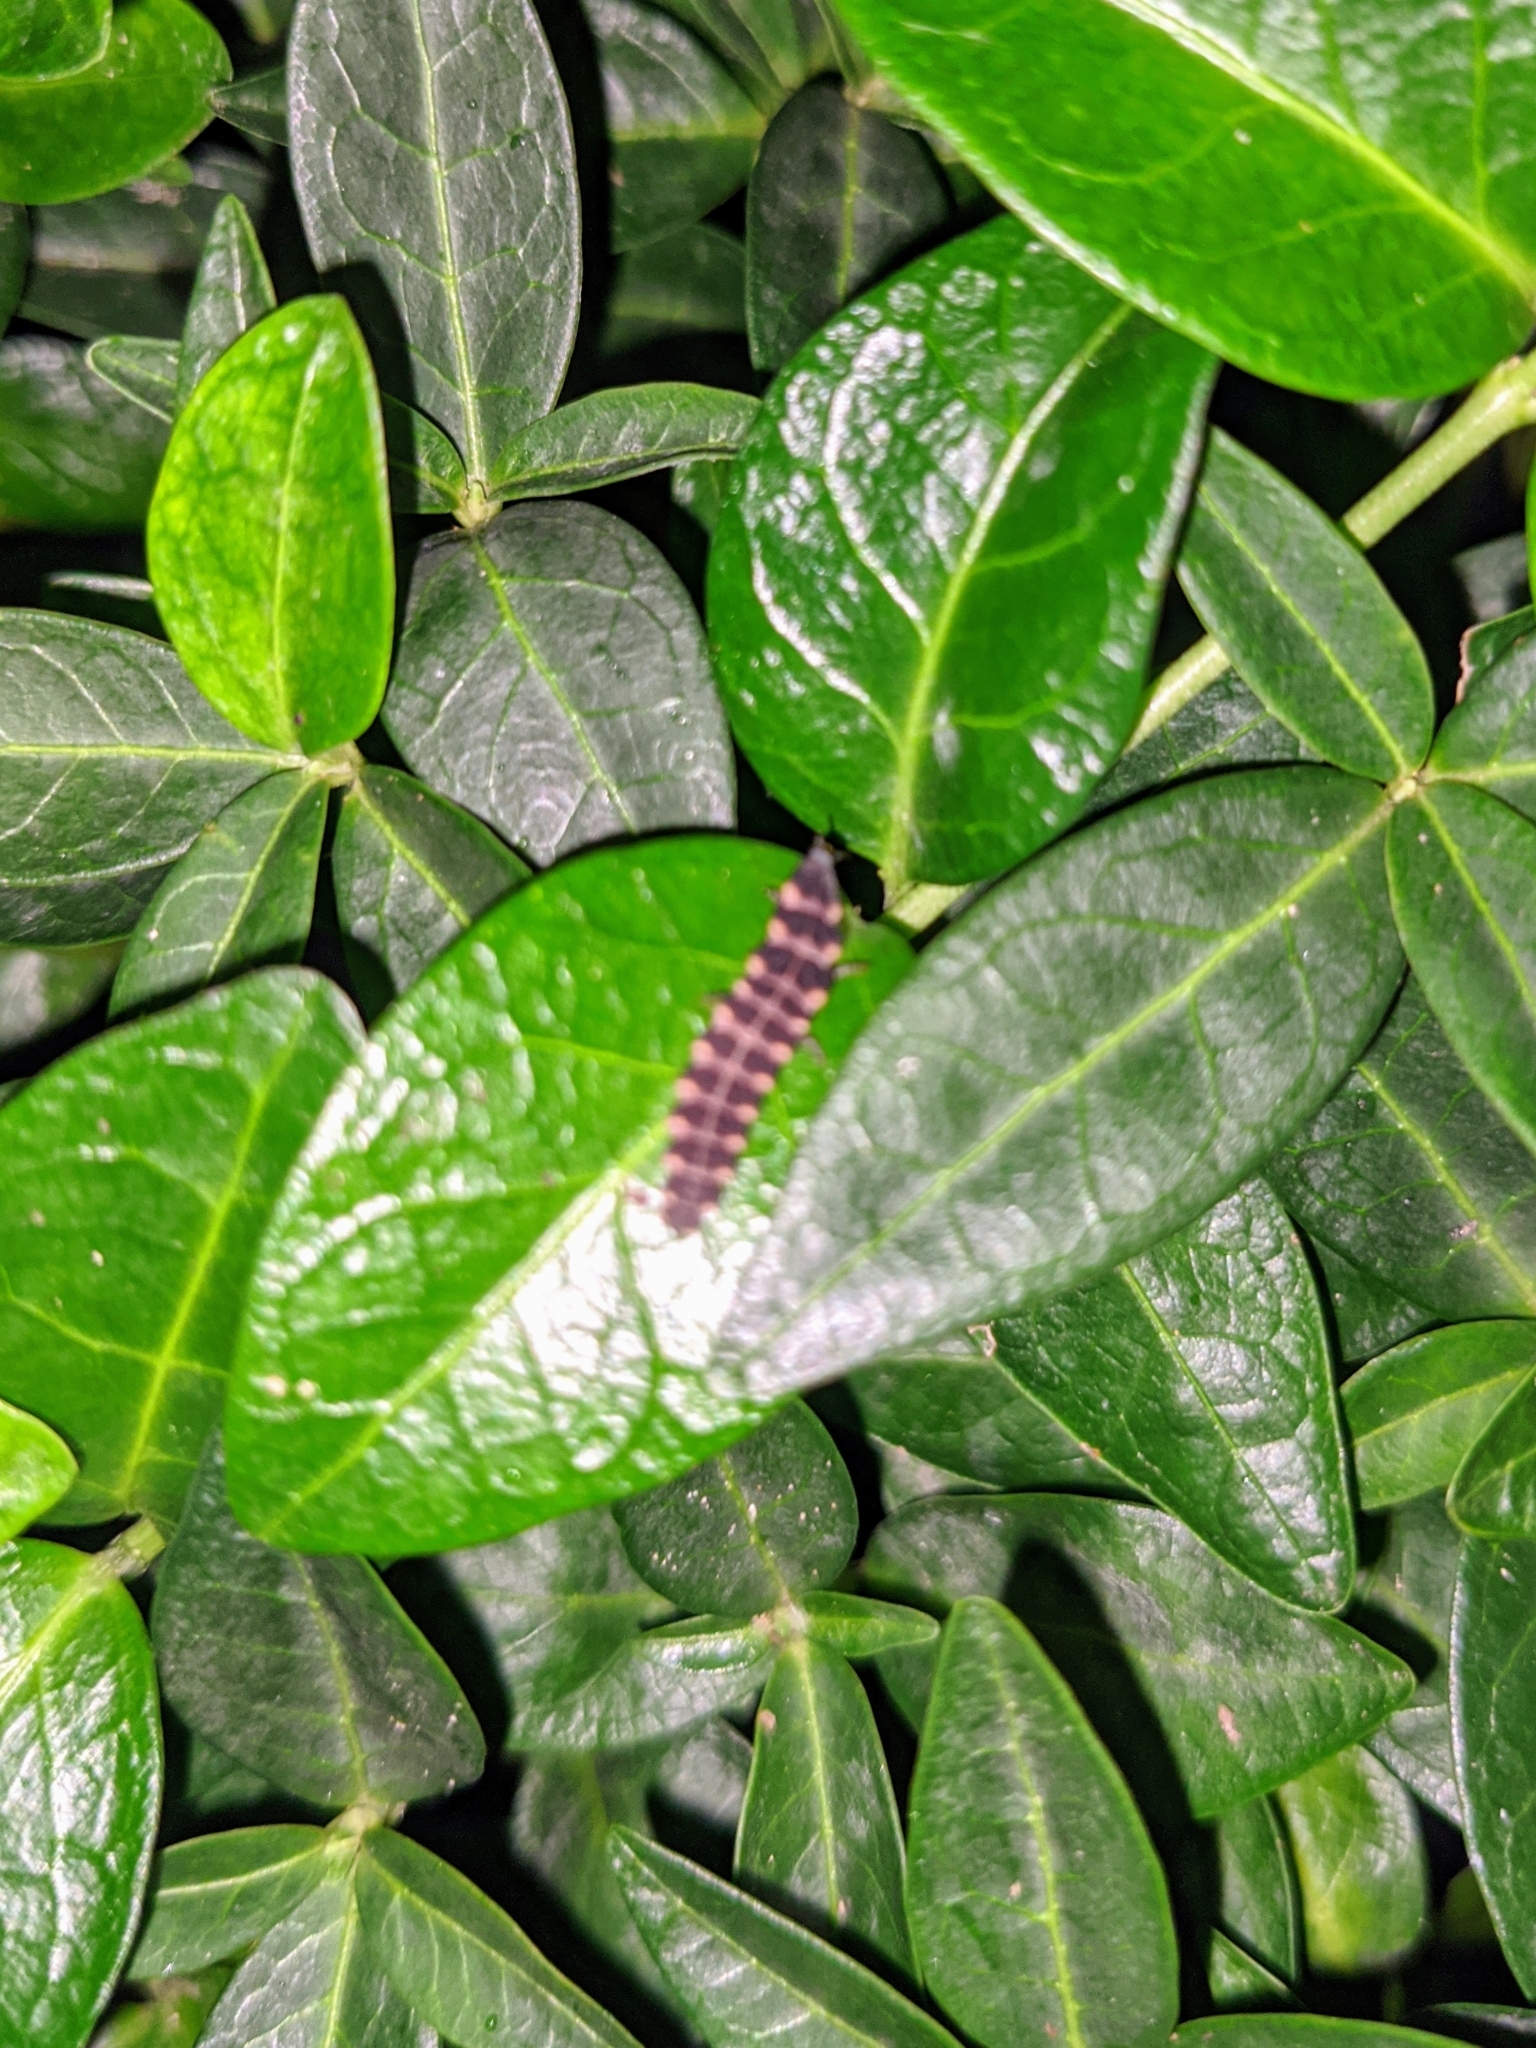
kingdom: Animalia
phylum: Arthropoda
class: Insecta
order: Coleoptera
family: Lampyridae
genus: Lampyris
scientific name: Lampyris noctiluca
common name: Glow-worm
